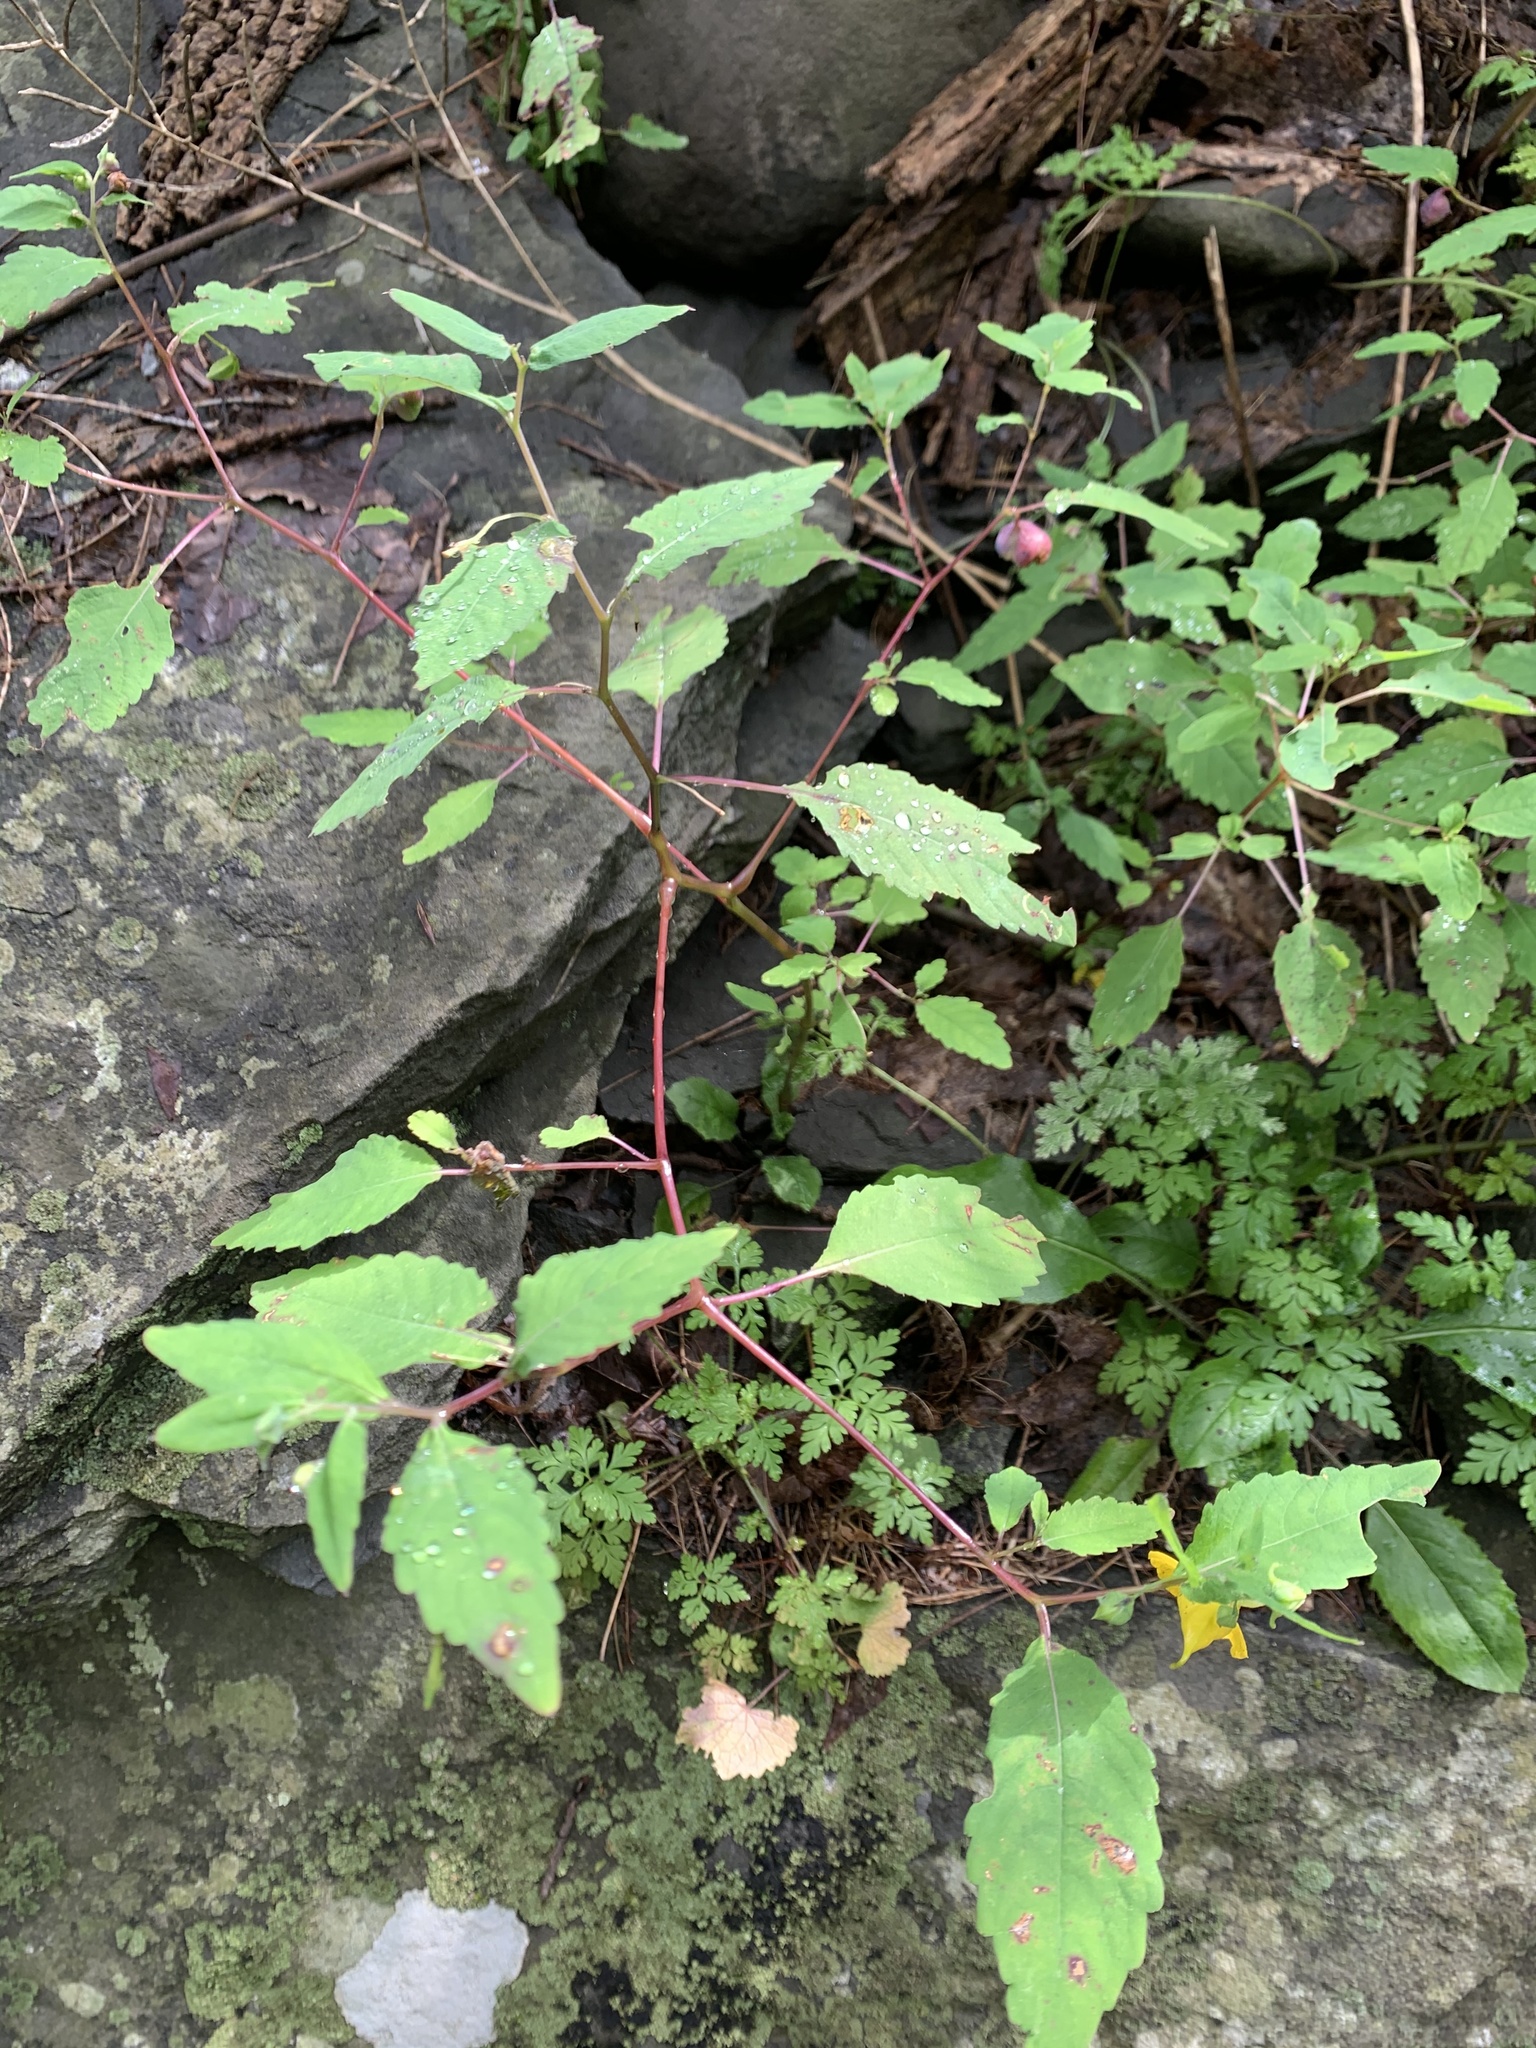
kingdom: Plantae
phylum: Tracheophyta
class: Magnoliopsida
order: Ericales
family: Balsaminaceae
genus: Impatiens
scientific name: Impatiens pallida
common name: Pale snapweed
